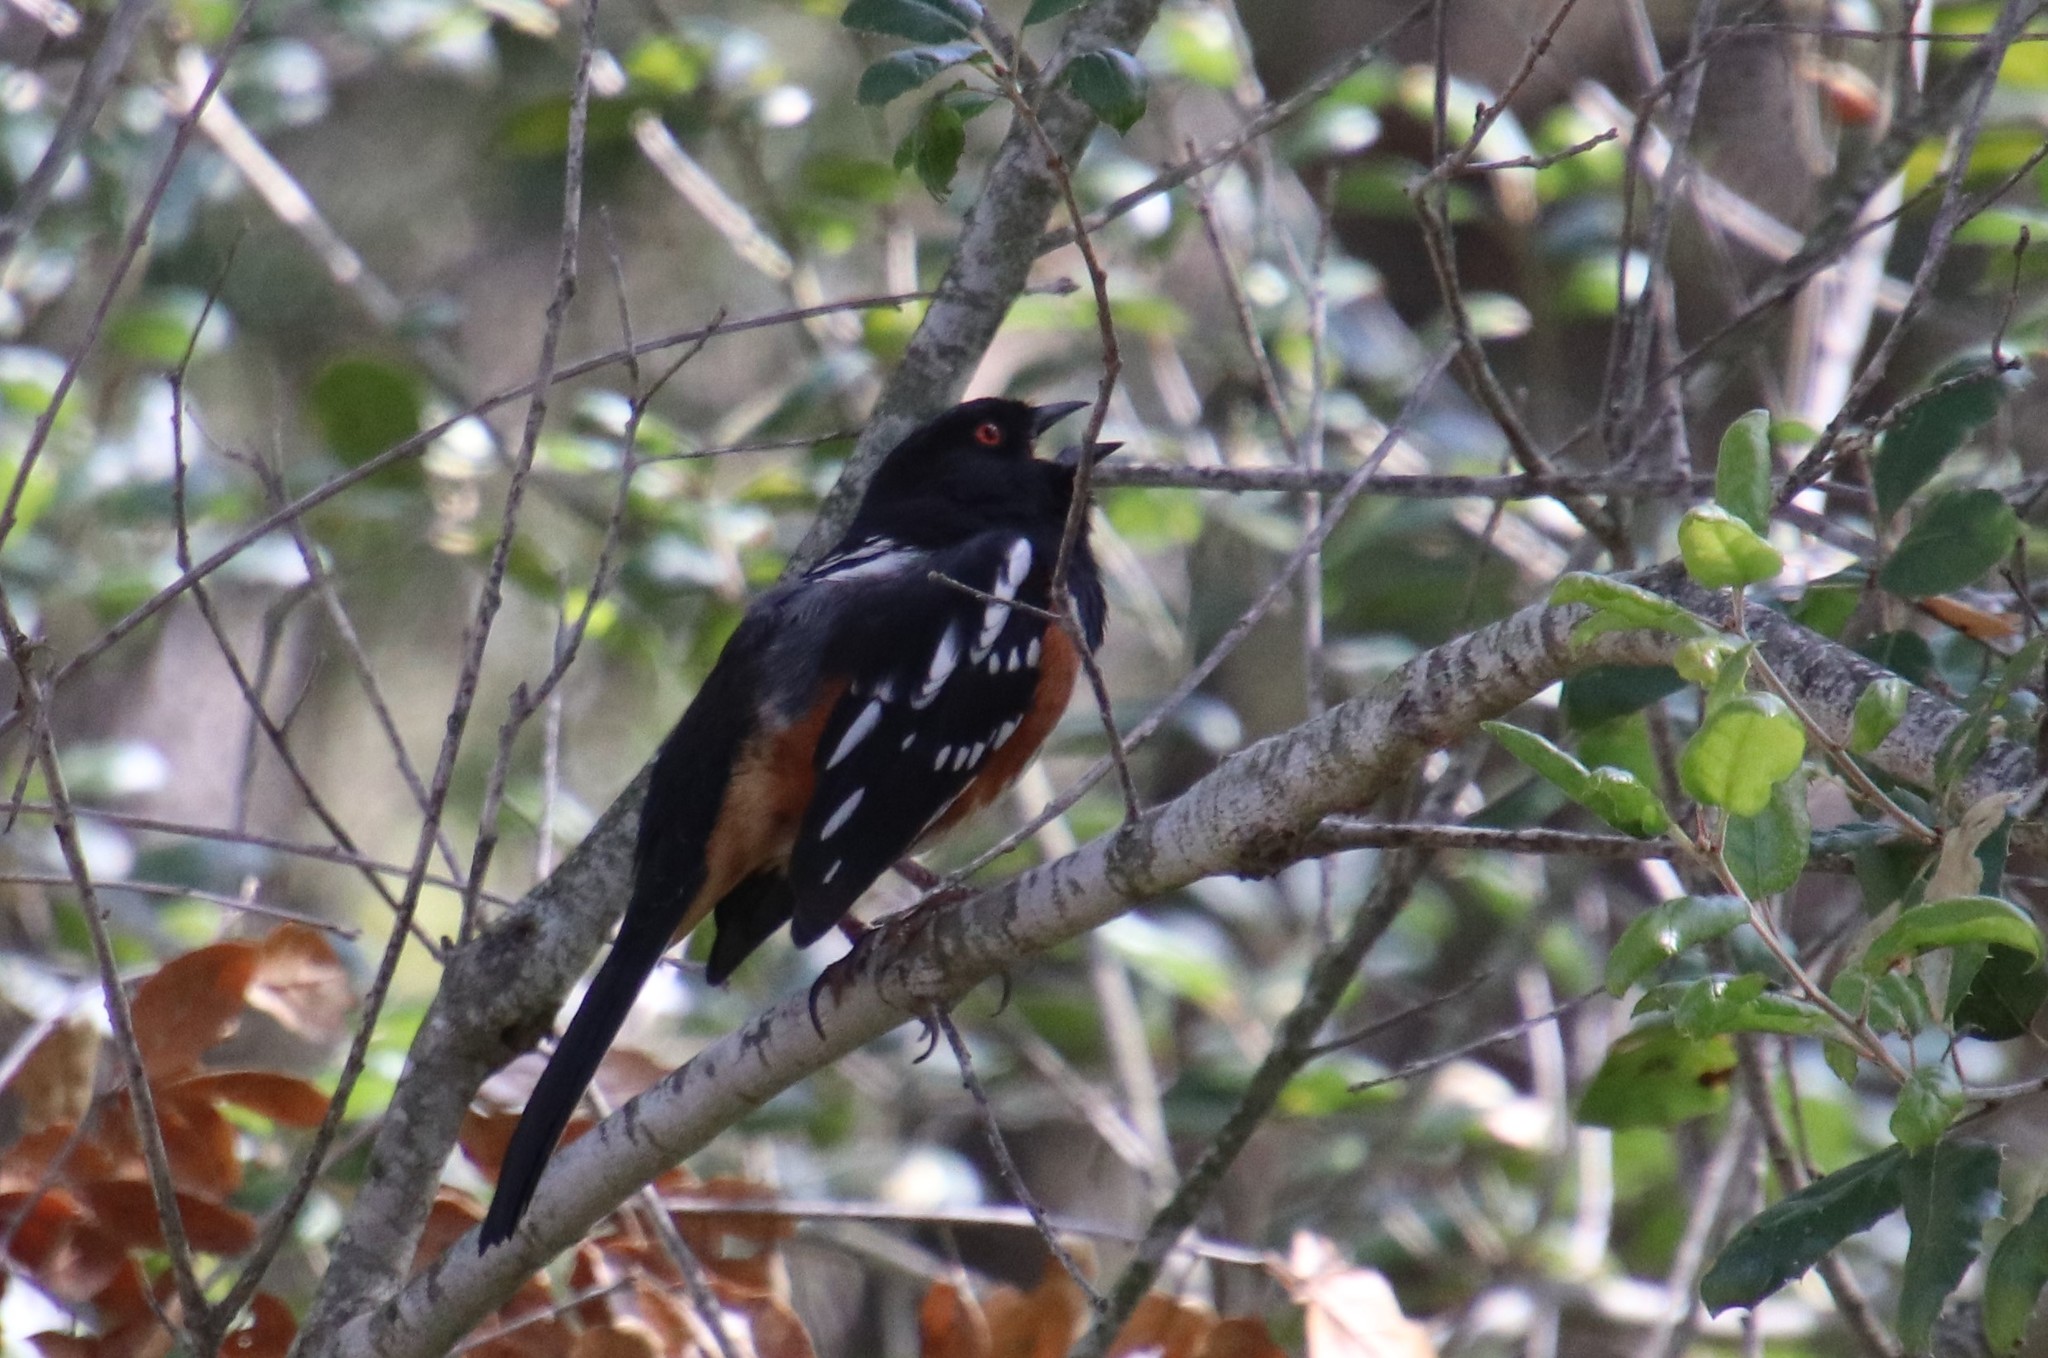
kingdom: Animalia
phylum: Chordata
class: Aves
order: Passeriformes
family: Passerellidae
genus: Pipilo
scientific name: Pipilo maculatus
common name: Spotted towhee
